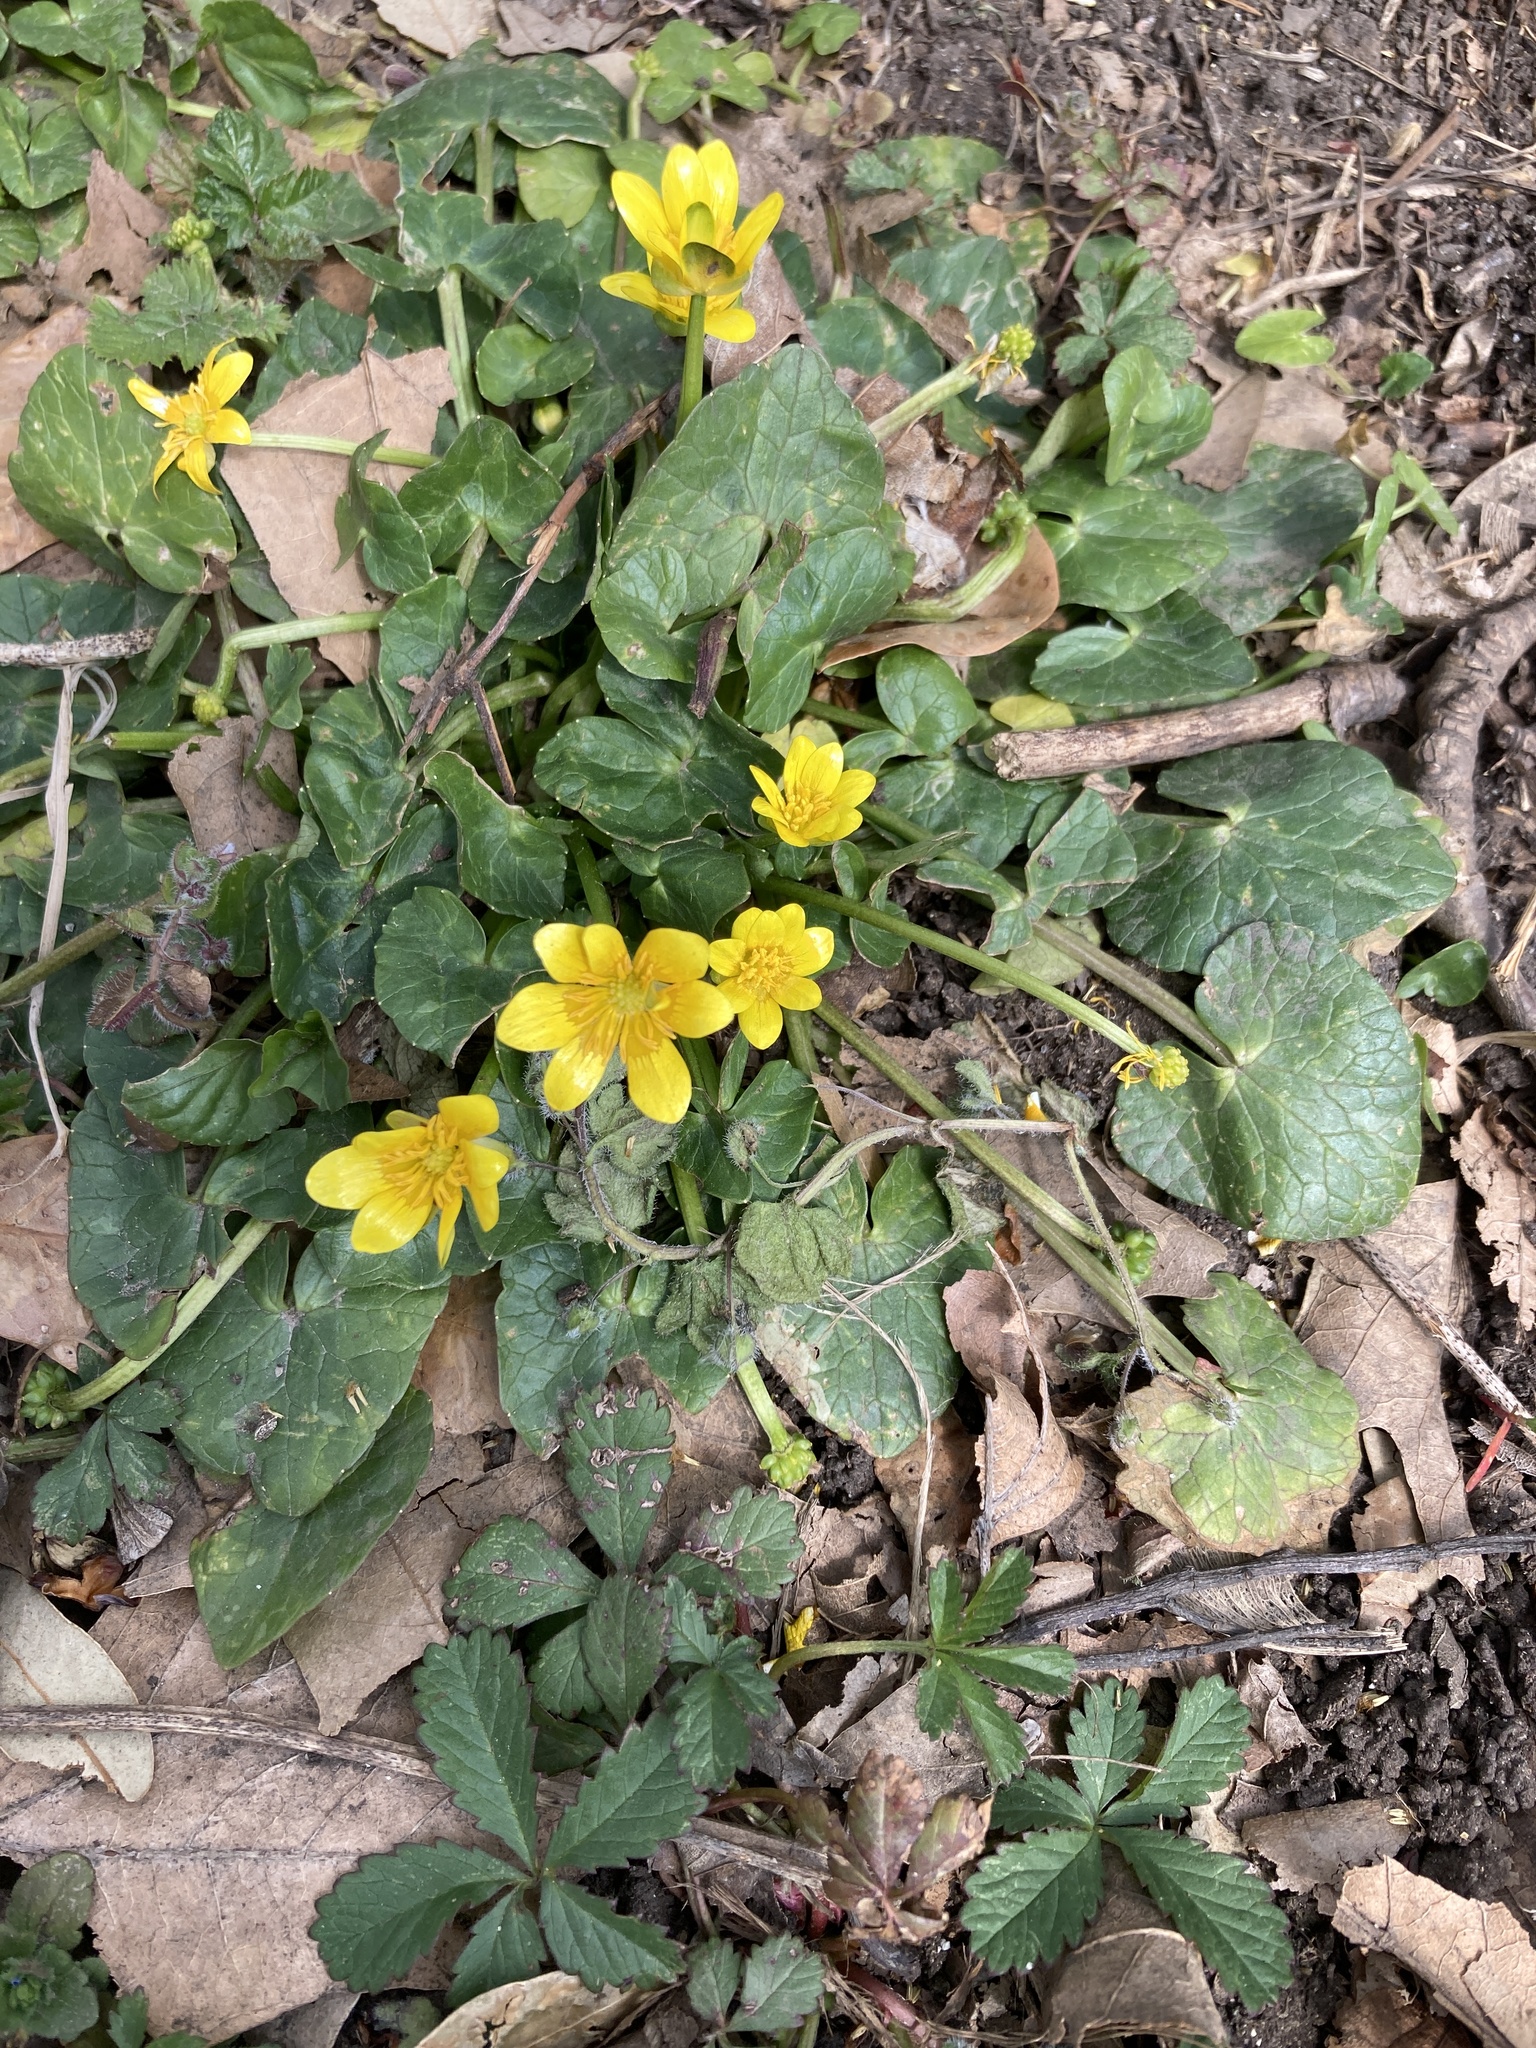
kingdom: Plantae
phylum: Tracheophyta
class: Magnoliopsida
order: Ranunculales
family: Ranunculaceae
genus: Ficaria
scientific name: Ficaria verna
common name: Lesser celandine
